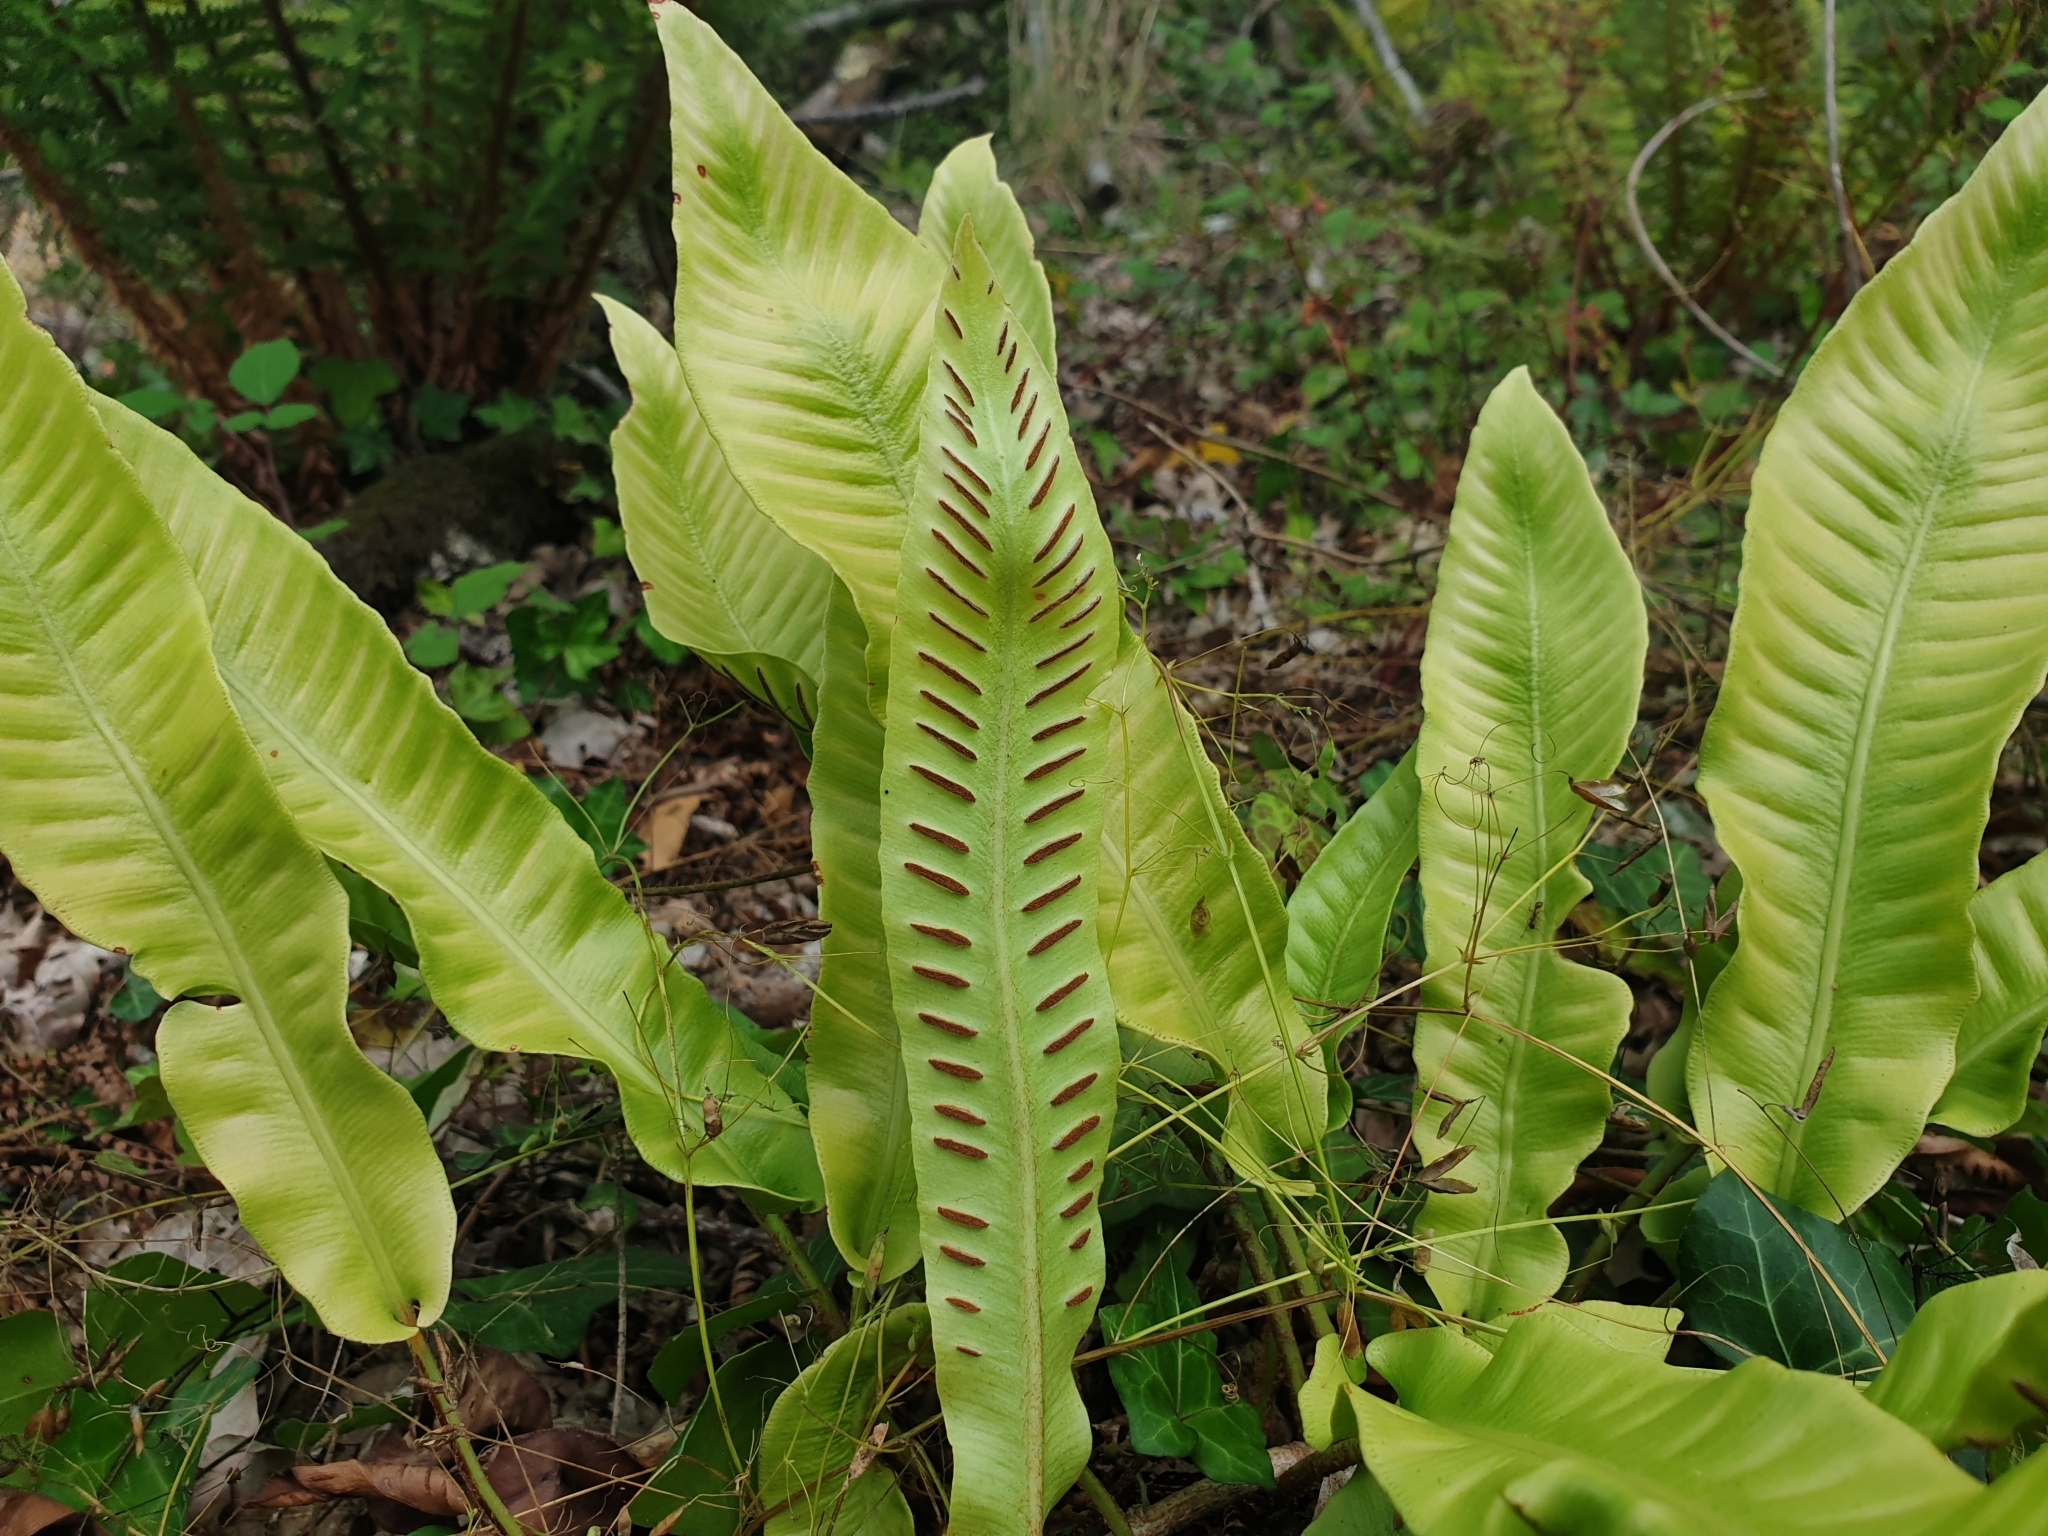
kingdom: Plantae
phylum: Tracheophyta
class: Polypodiopsida
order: Polypodiales
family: Aspleniaceae
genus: Asplenium
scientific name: Asplenium scolopendrium
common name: Hart's-tongue fern
